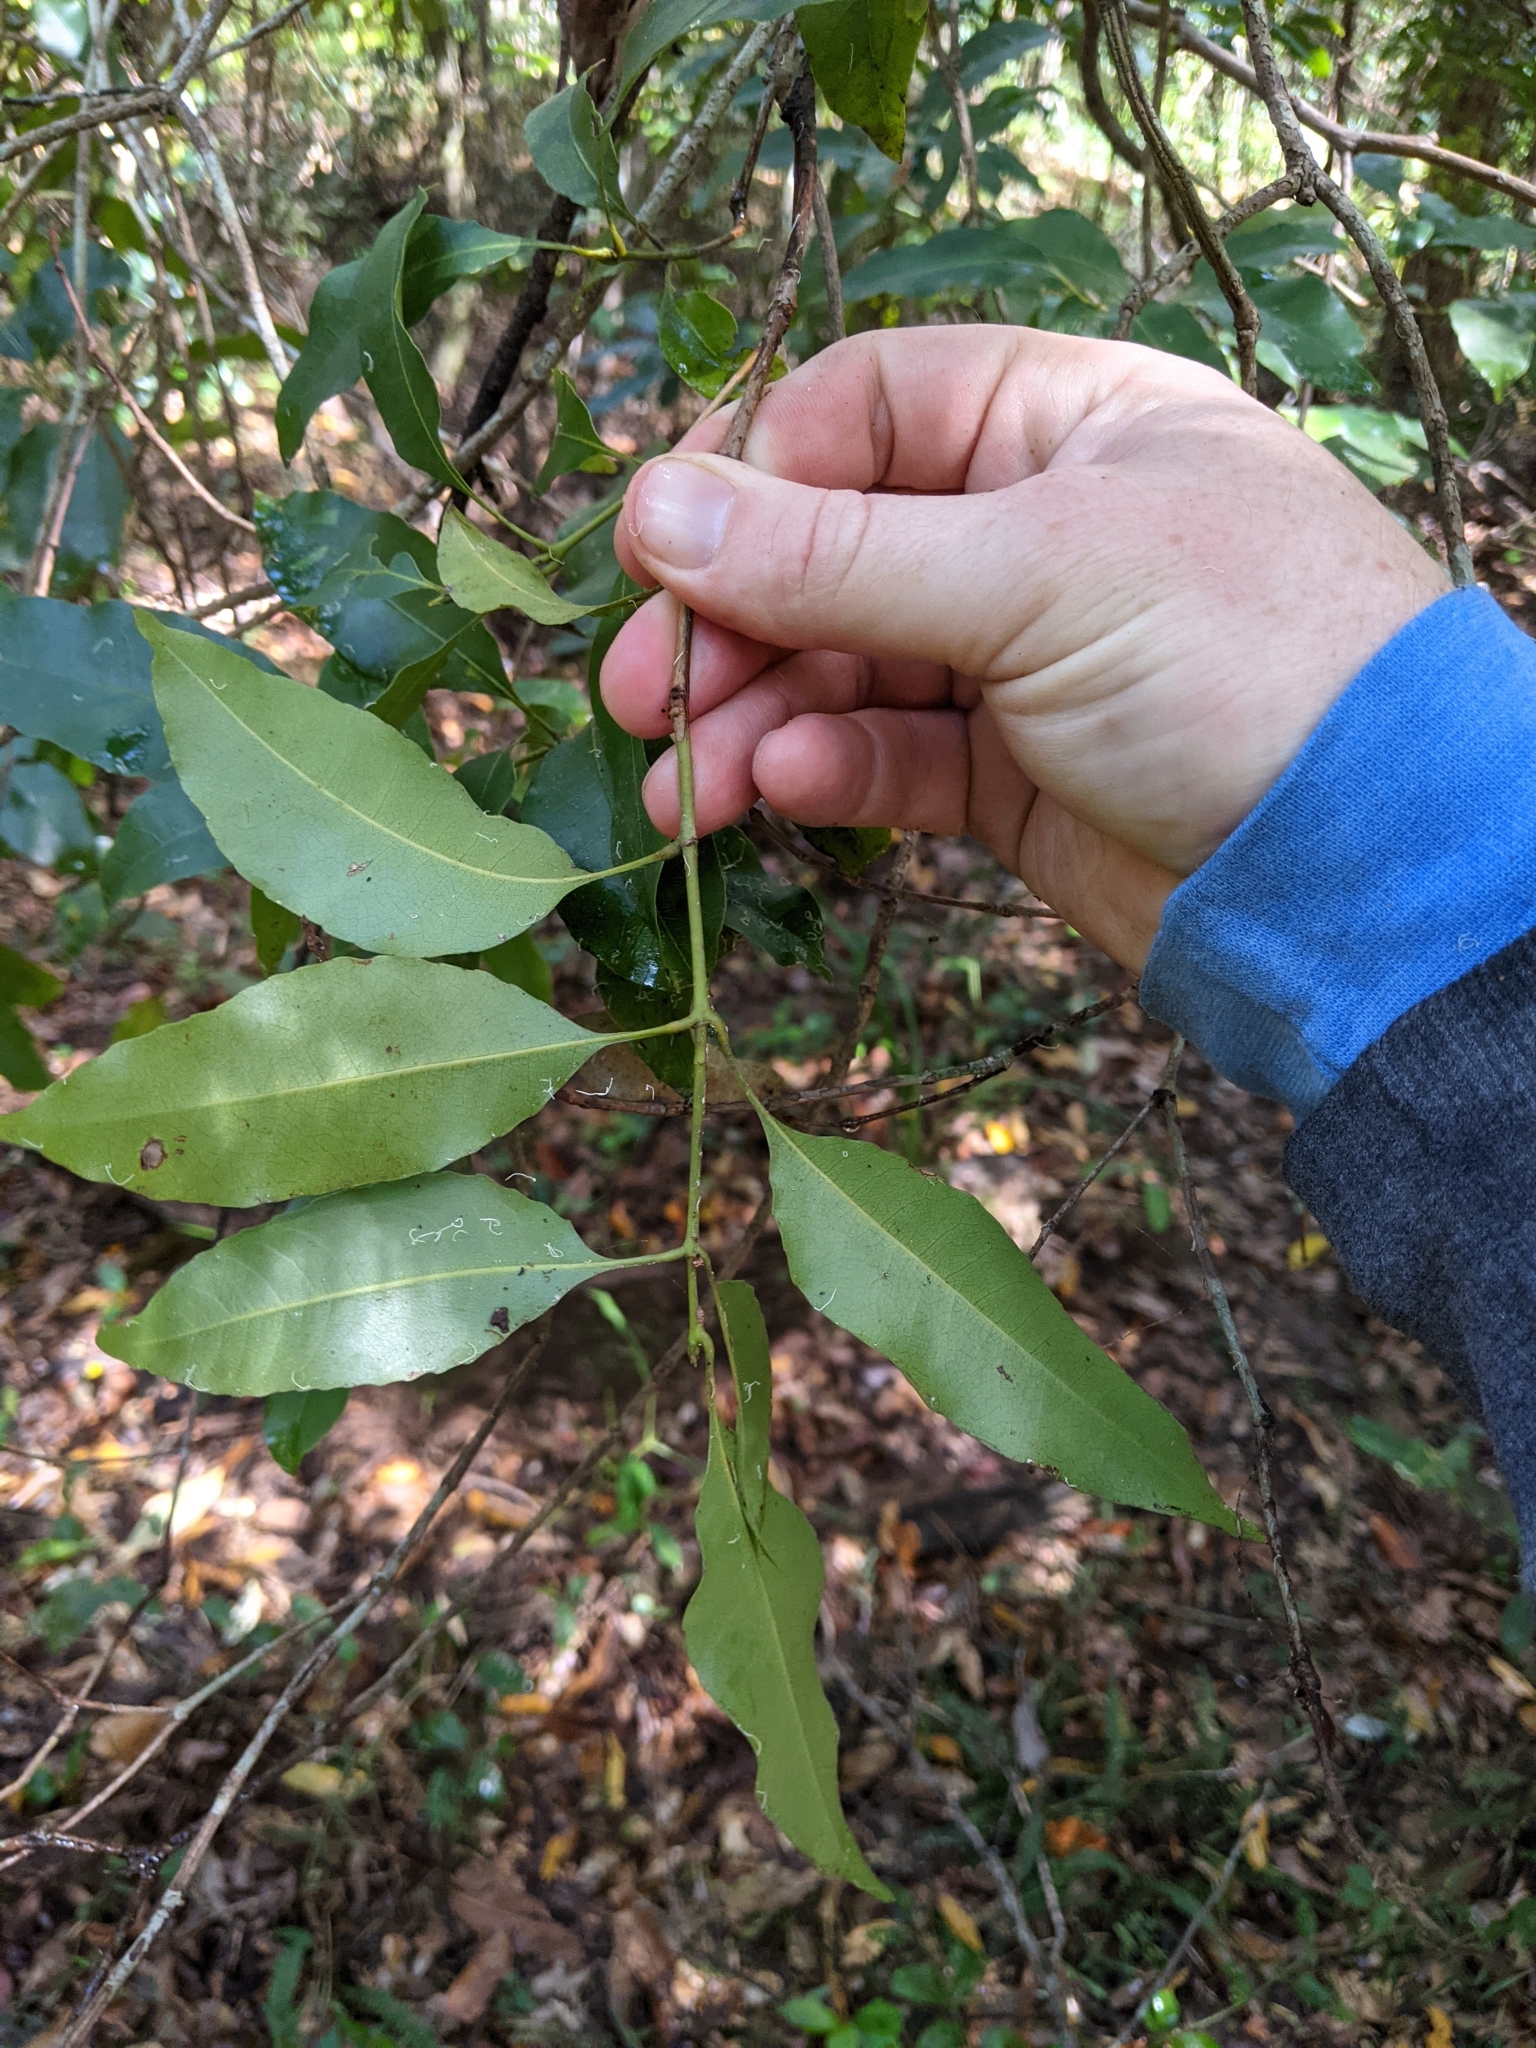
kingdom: Plantae
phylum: Tracheophyta
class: Magnoliopsida
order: Oxalidales
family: Cunoniaceae
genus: Schizomeria
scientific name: Schizomeria ovata
